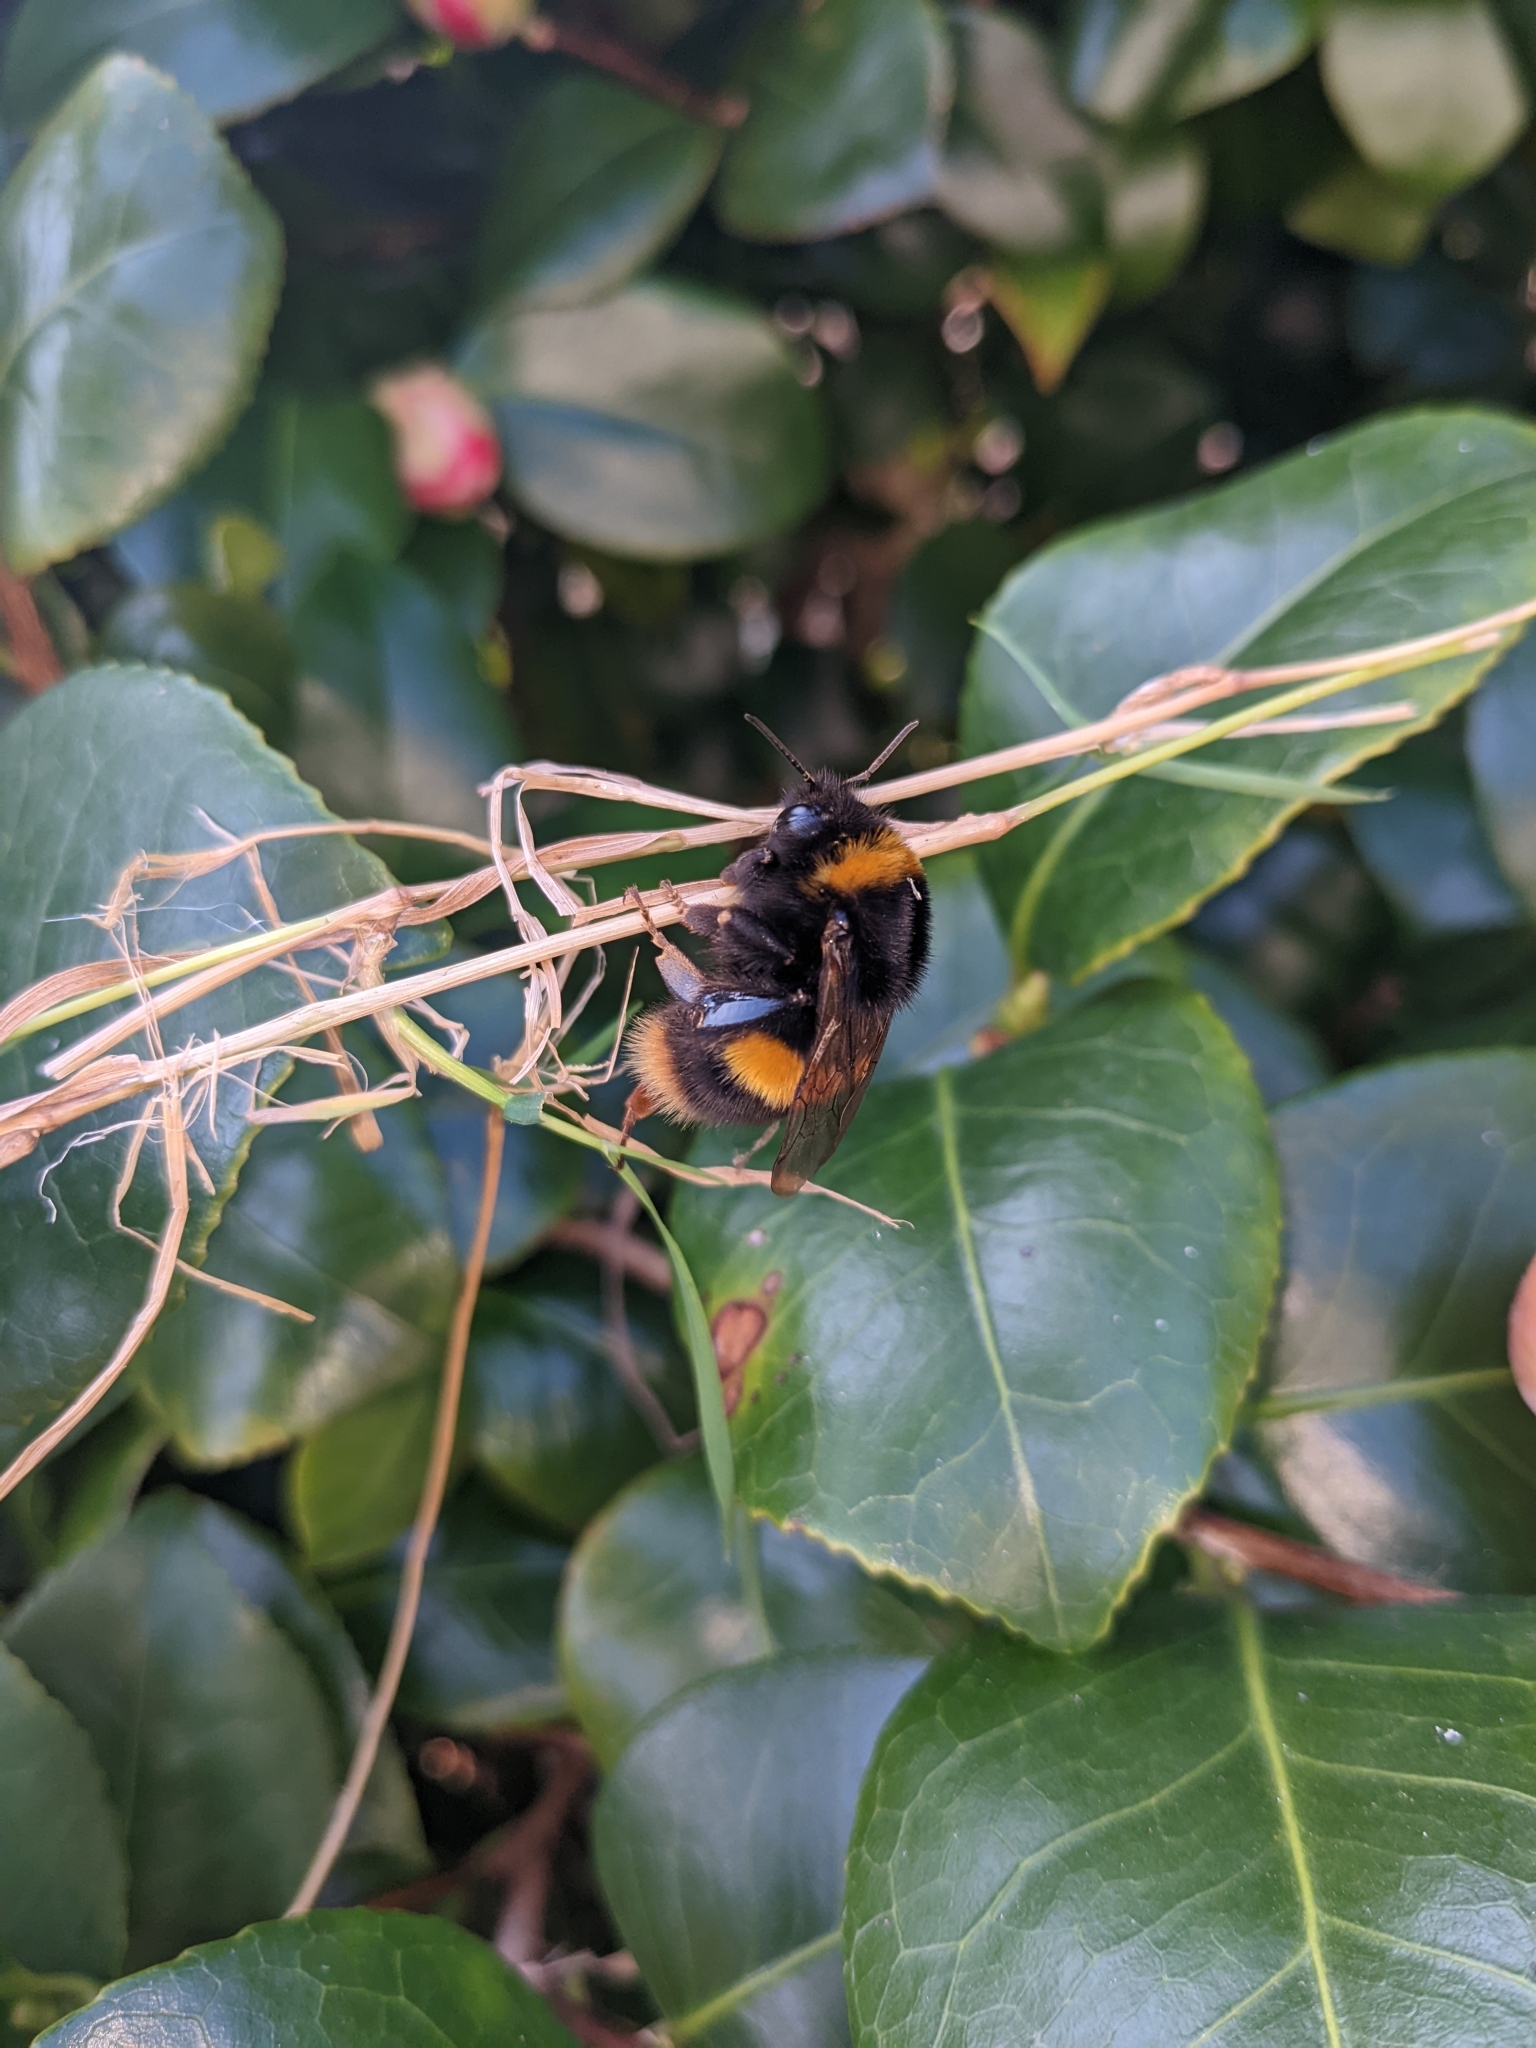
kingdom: Animalia
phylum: Arthropoda
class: Insecta
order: Hymenoptera
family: Apidae
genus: Bombus
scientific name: Bombus terrestris
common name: Buff-tailed bumblebee
